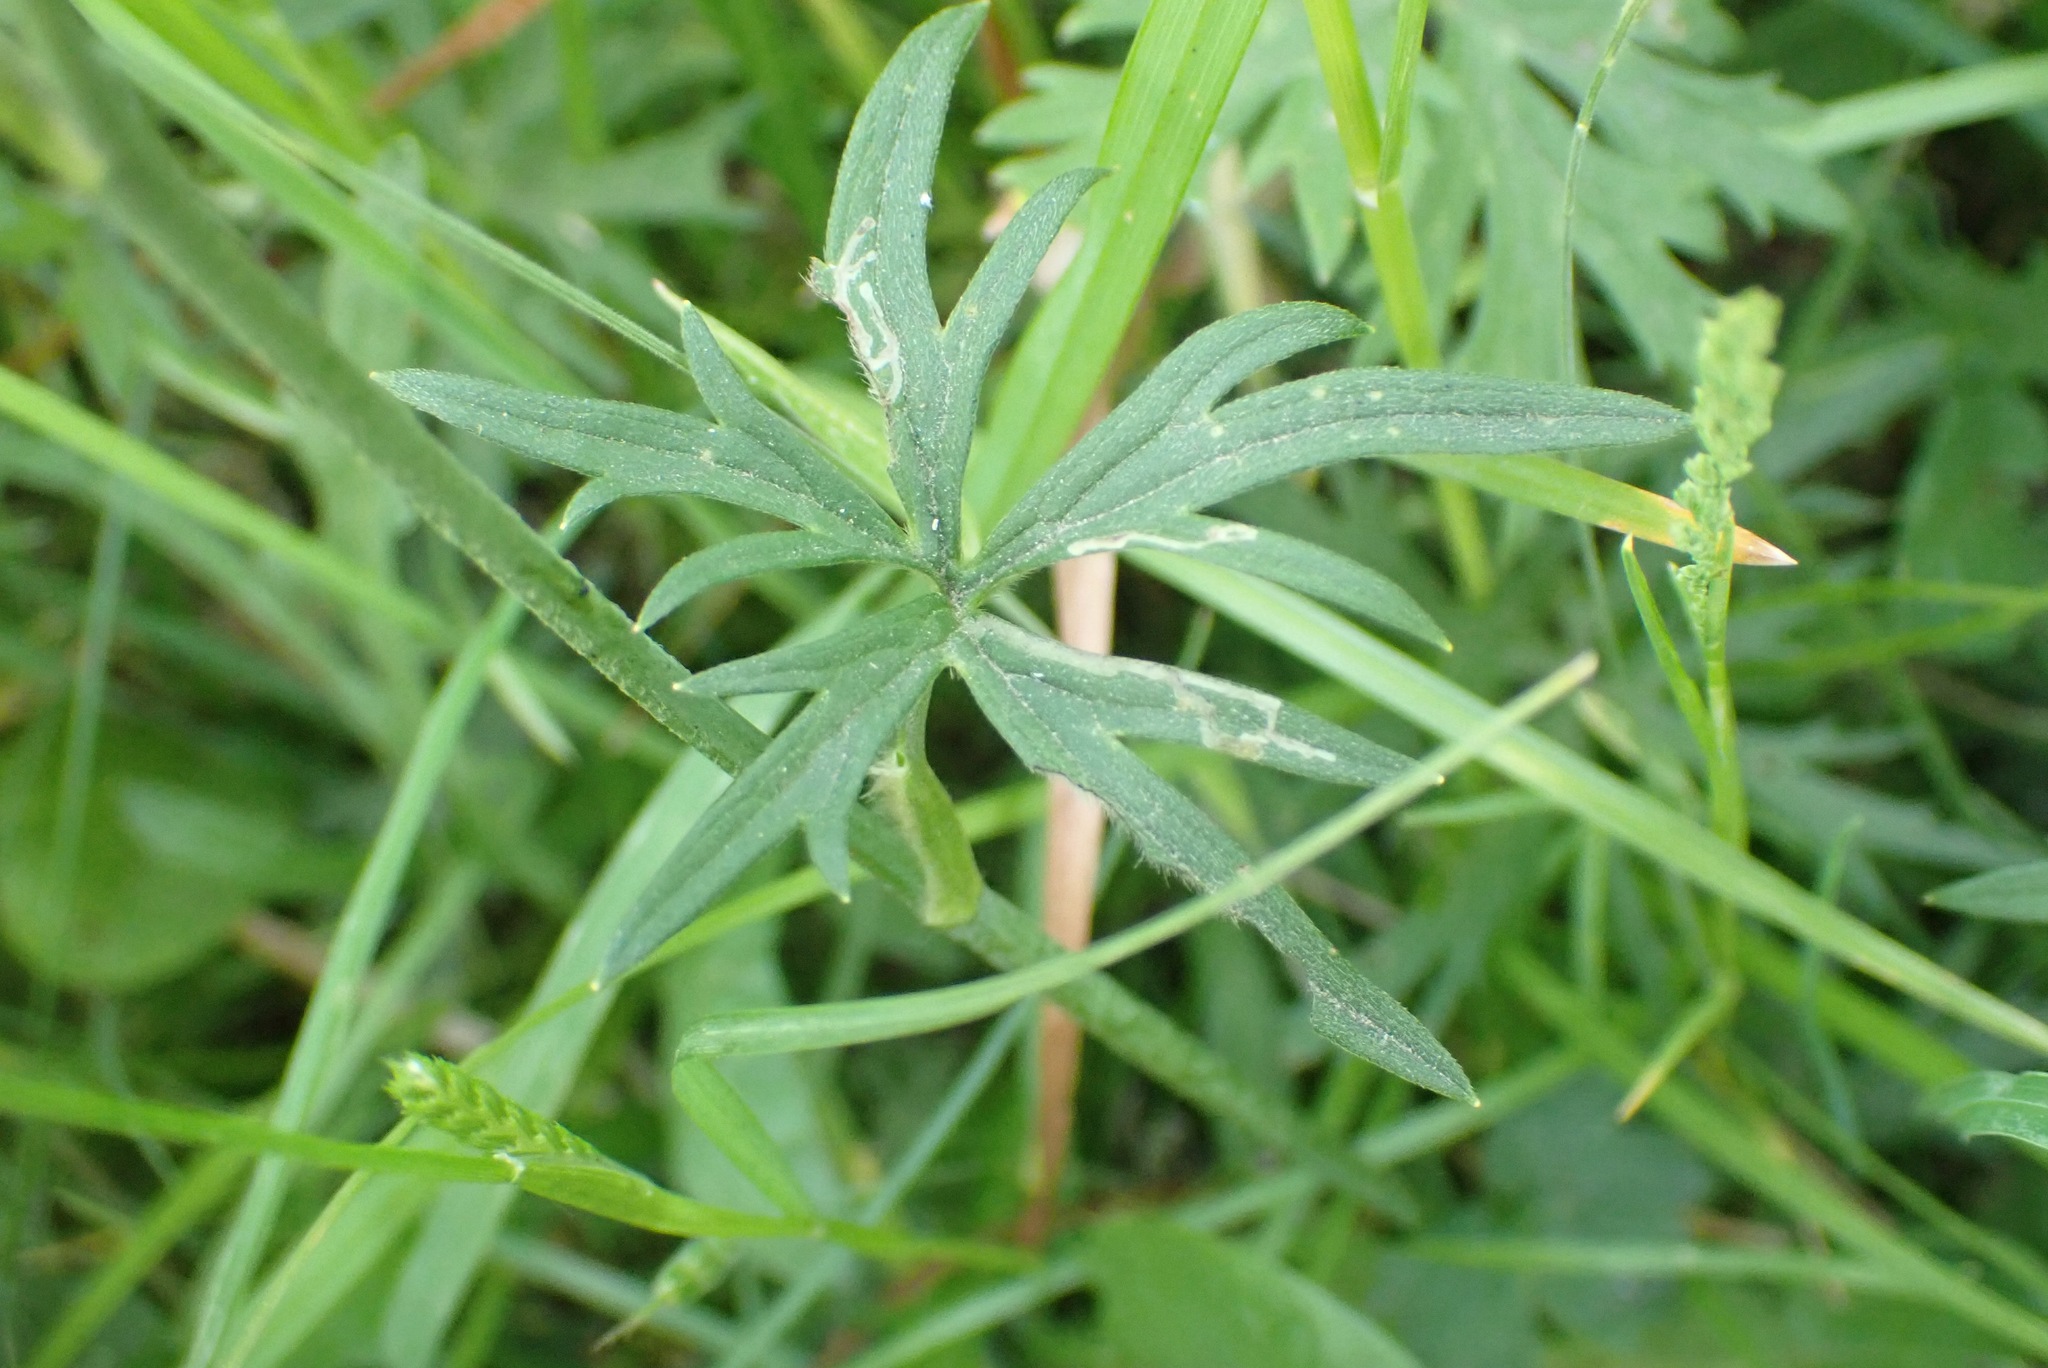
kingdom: Plantae
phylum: Tracheophyta
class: Magnoliopsida
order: Ranunculales
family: Ranunculaceae
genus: Ranunculus
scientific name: Ranunculus acris
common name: Meadow buttercup
